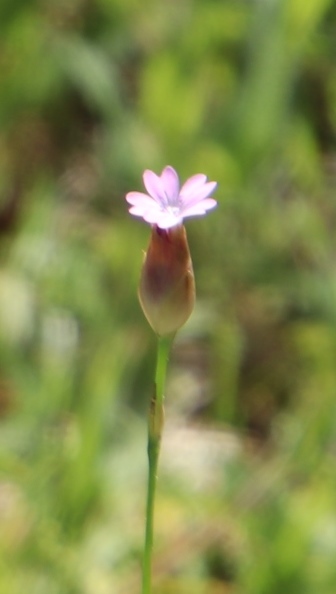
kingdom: Plantae
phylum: Tracheophyta
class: Magnoliopsida
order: Caryophyllales
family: Caryophyllaceae
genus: Petrorhagia
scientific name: Petrorhagia prolifera
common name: Proliferous pink
